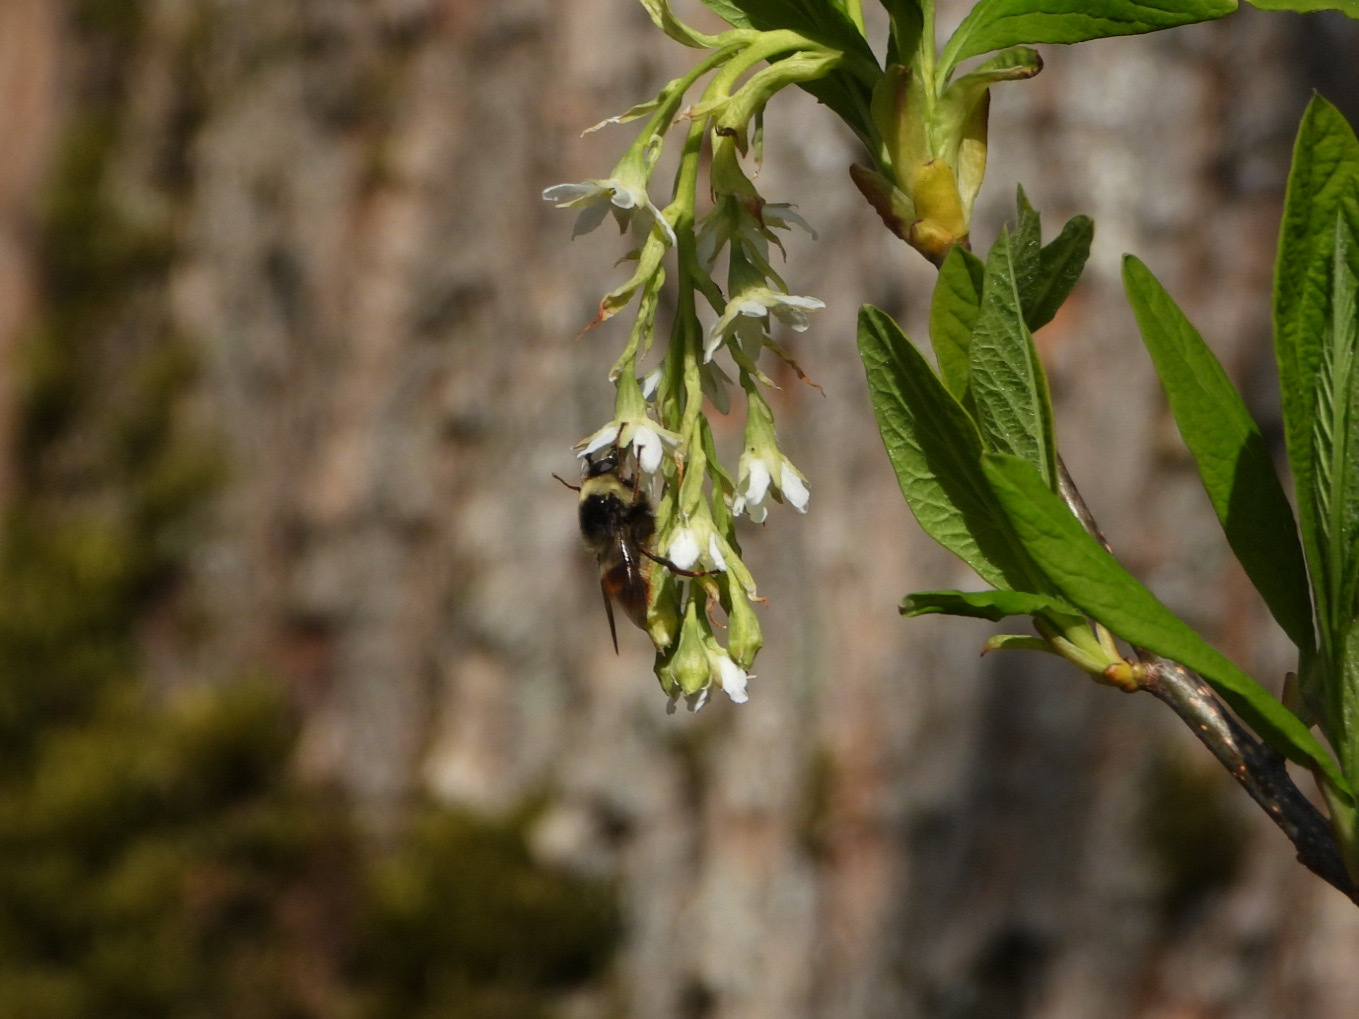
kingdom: Animalia
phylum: Arthropoda
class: Insecta
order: Diptera
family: Syrphidae
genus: Criorhina
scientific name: Criorhina caudata
